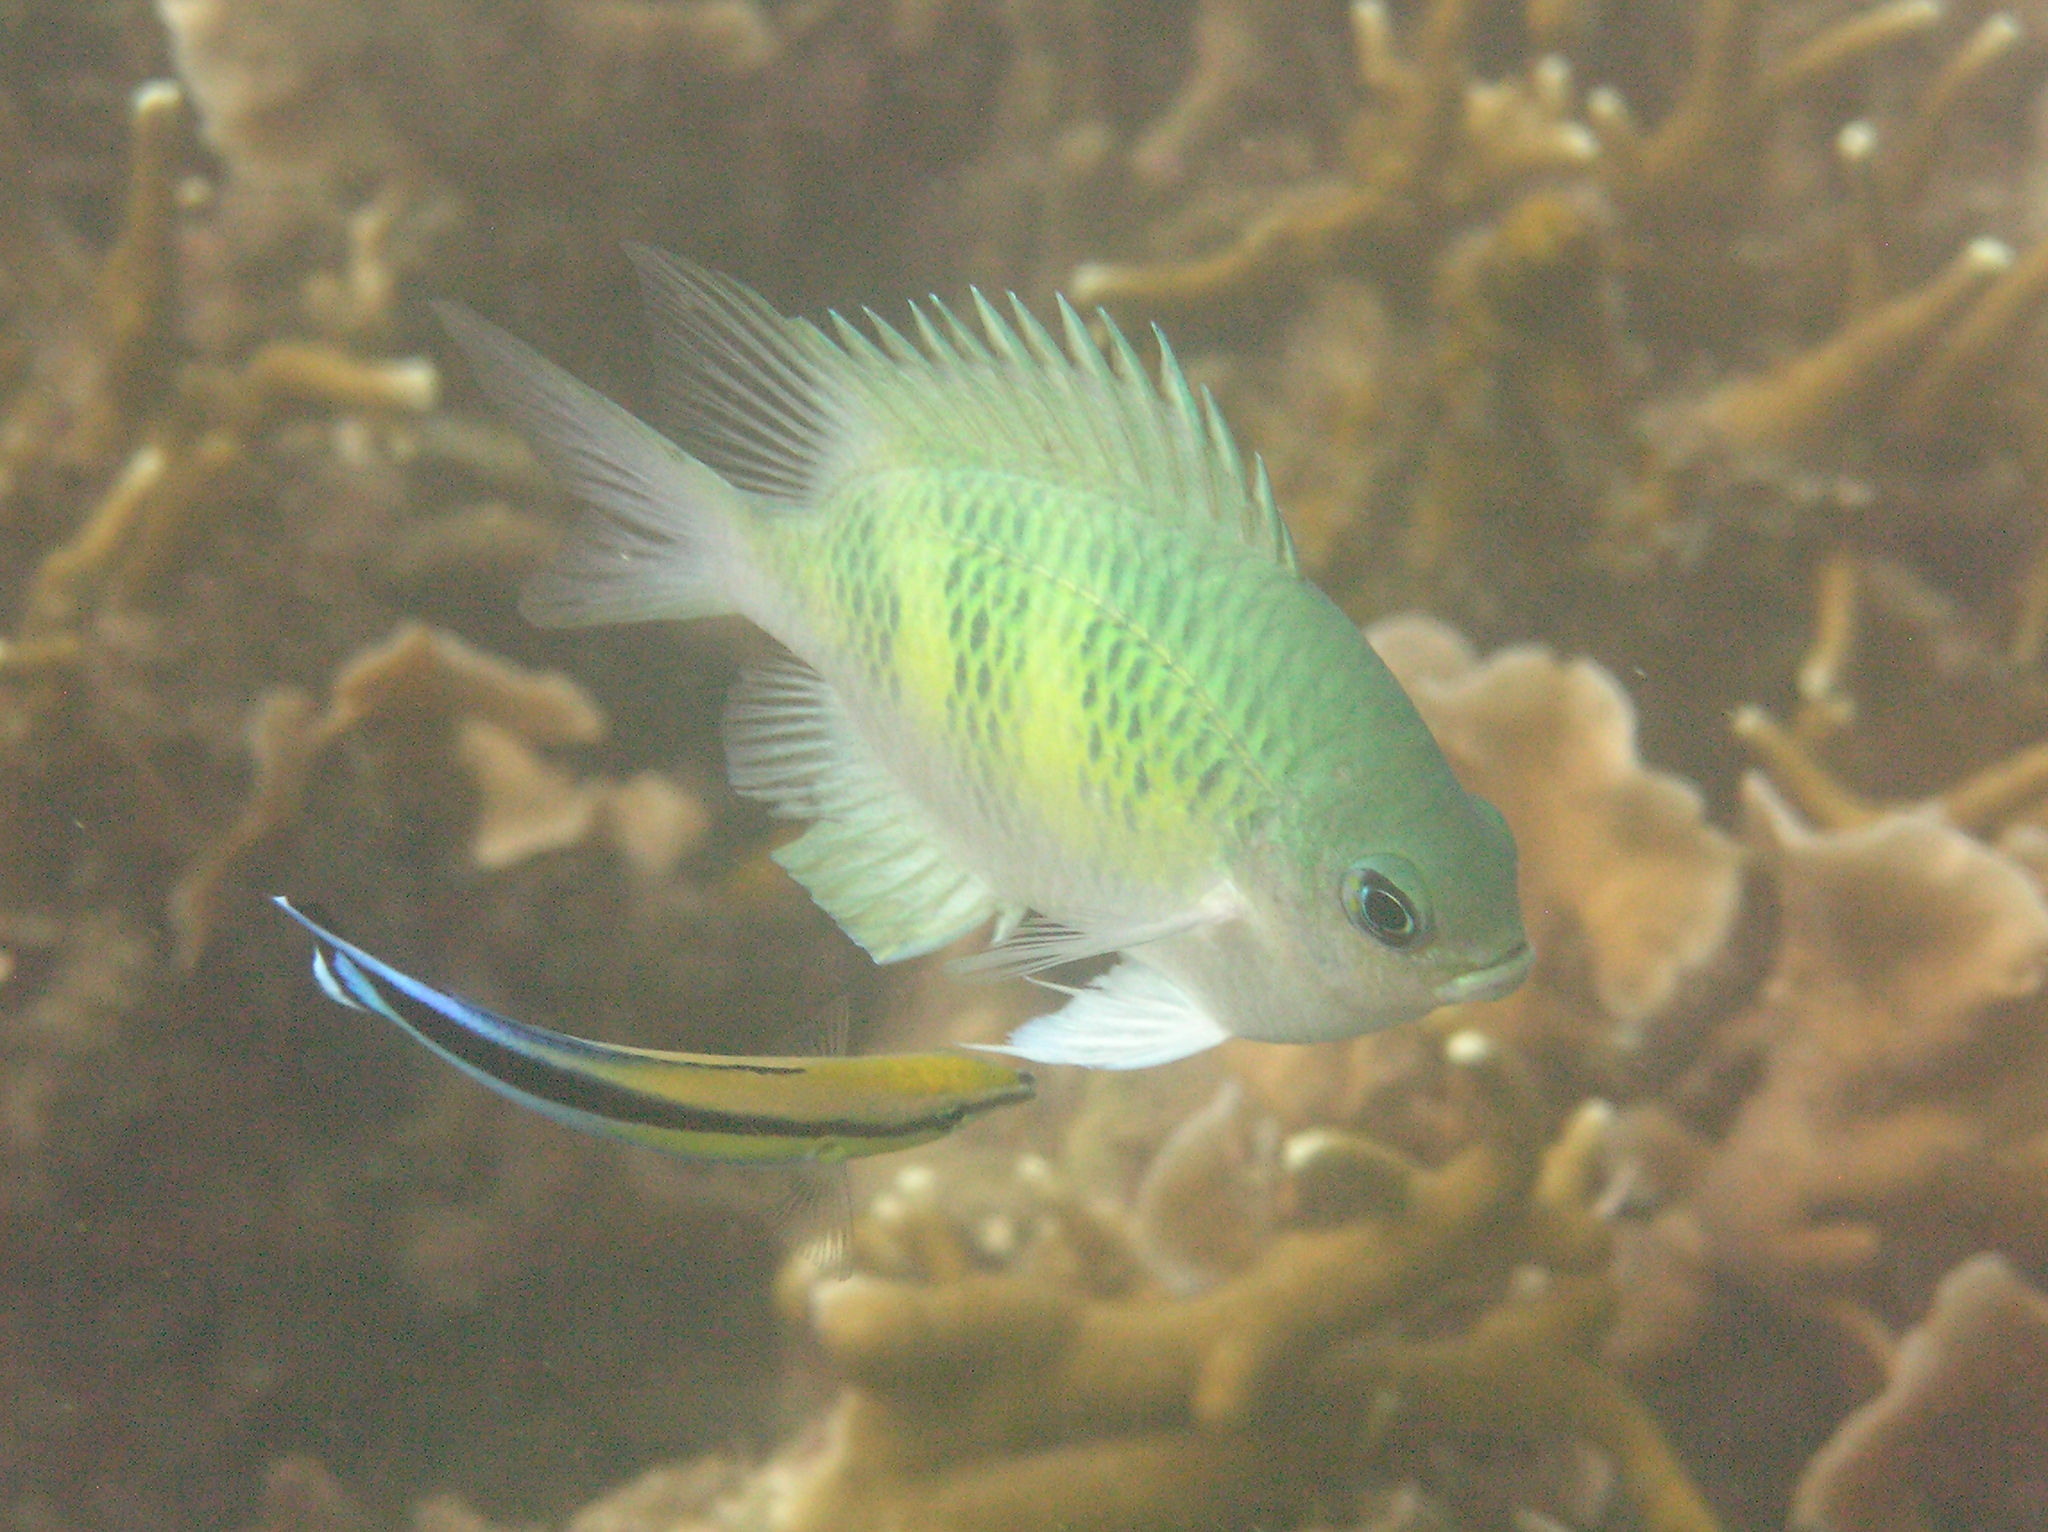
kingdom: Animalia
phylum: Chordata
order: Perciformes
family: Labridae
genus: Labroides
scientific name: Labroides dimidiatus
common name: Blue diesel wrasse
